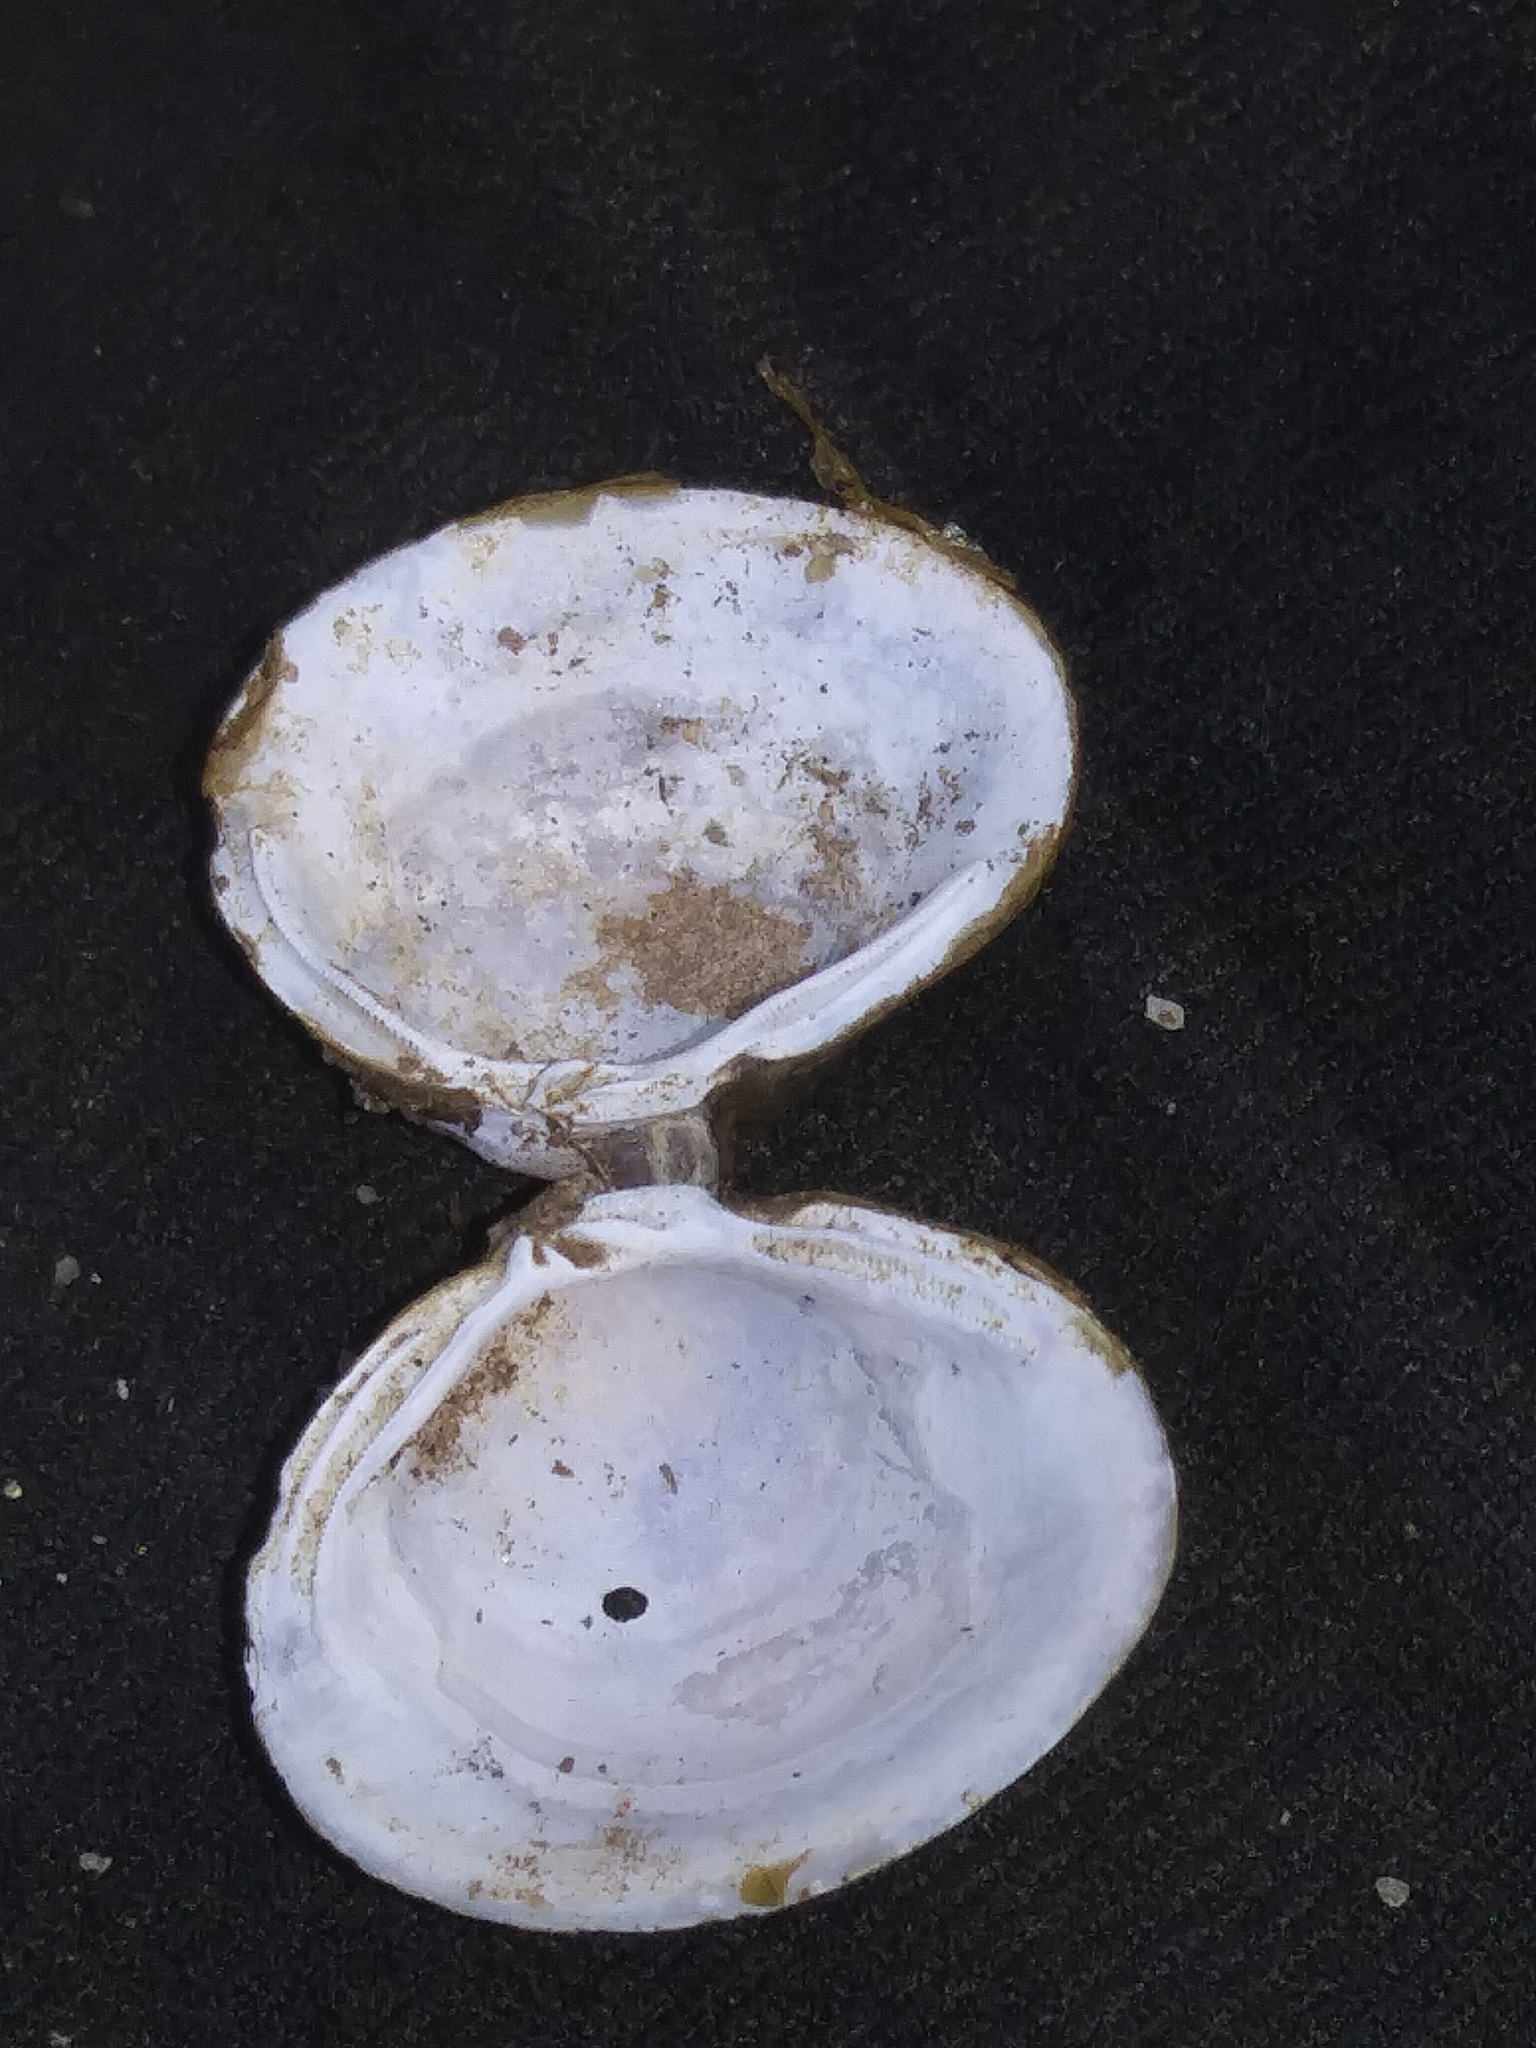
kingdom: Animalia
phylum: Mollusca
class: Bivalvia
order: Venerida
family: Cyrenidae
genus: Corbicula
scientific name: Corbicula fluminea
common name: Asian clam
